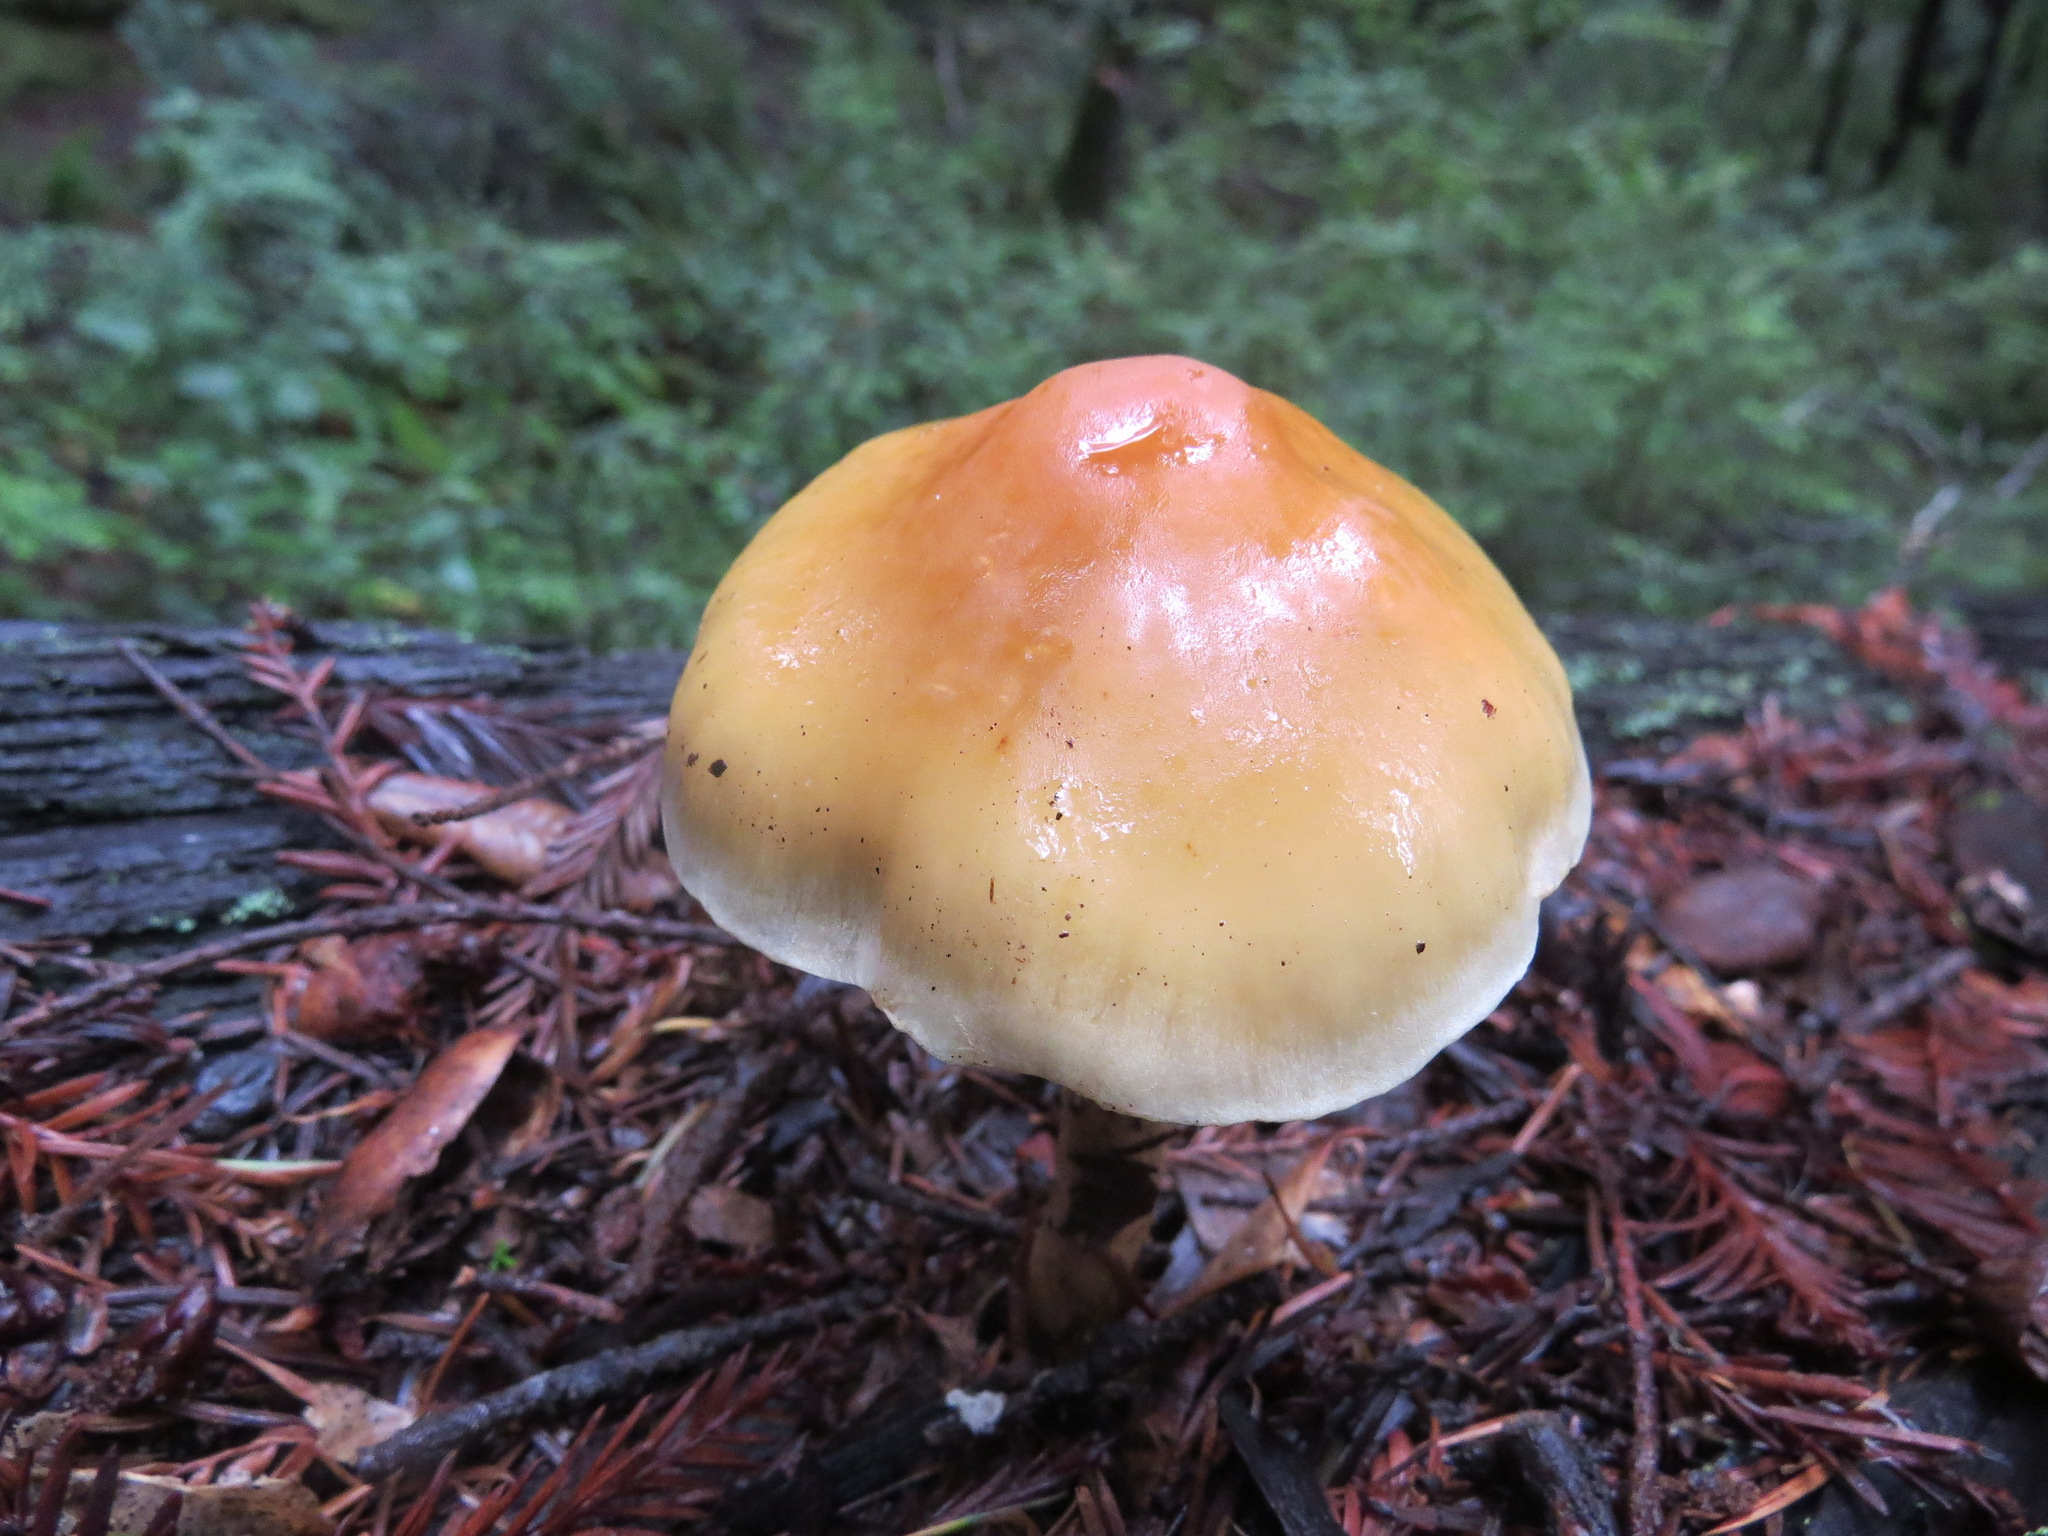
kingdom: Fungi
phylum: Basidiomycota
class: Agaricomycetes
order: Agaricales
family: Strophariaceae
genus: Hypholoma
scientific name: Hypholoma capnoides
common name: Conifer tuft
